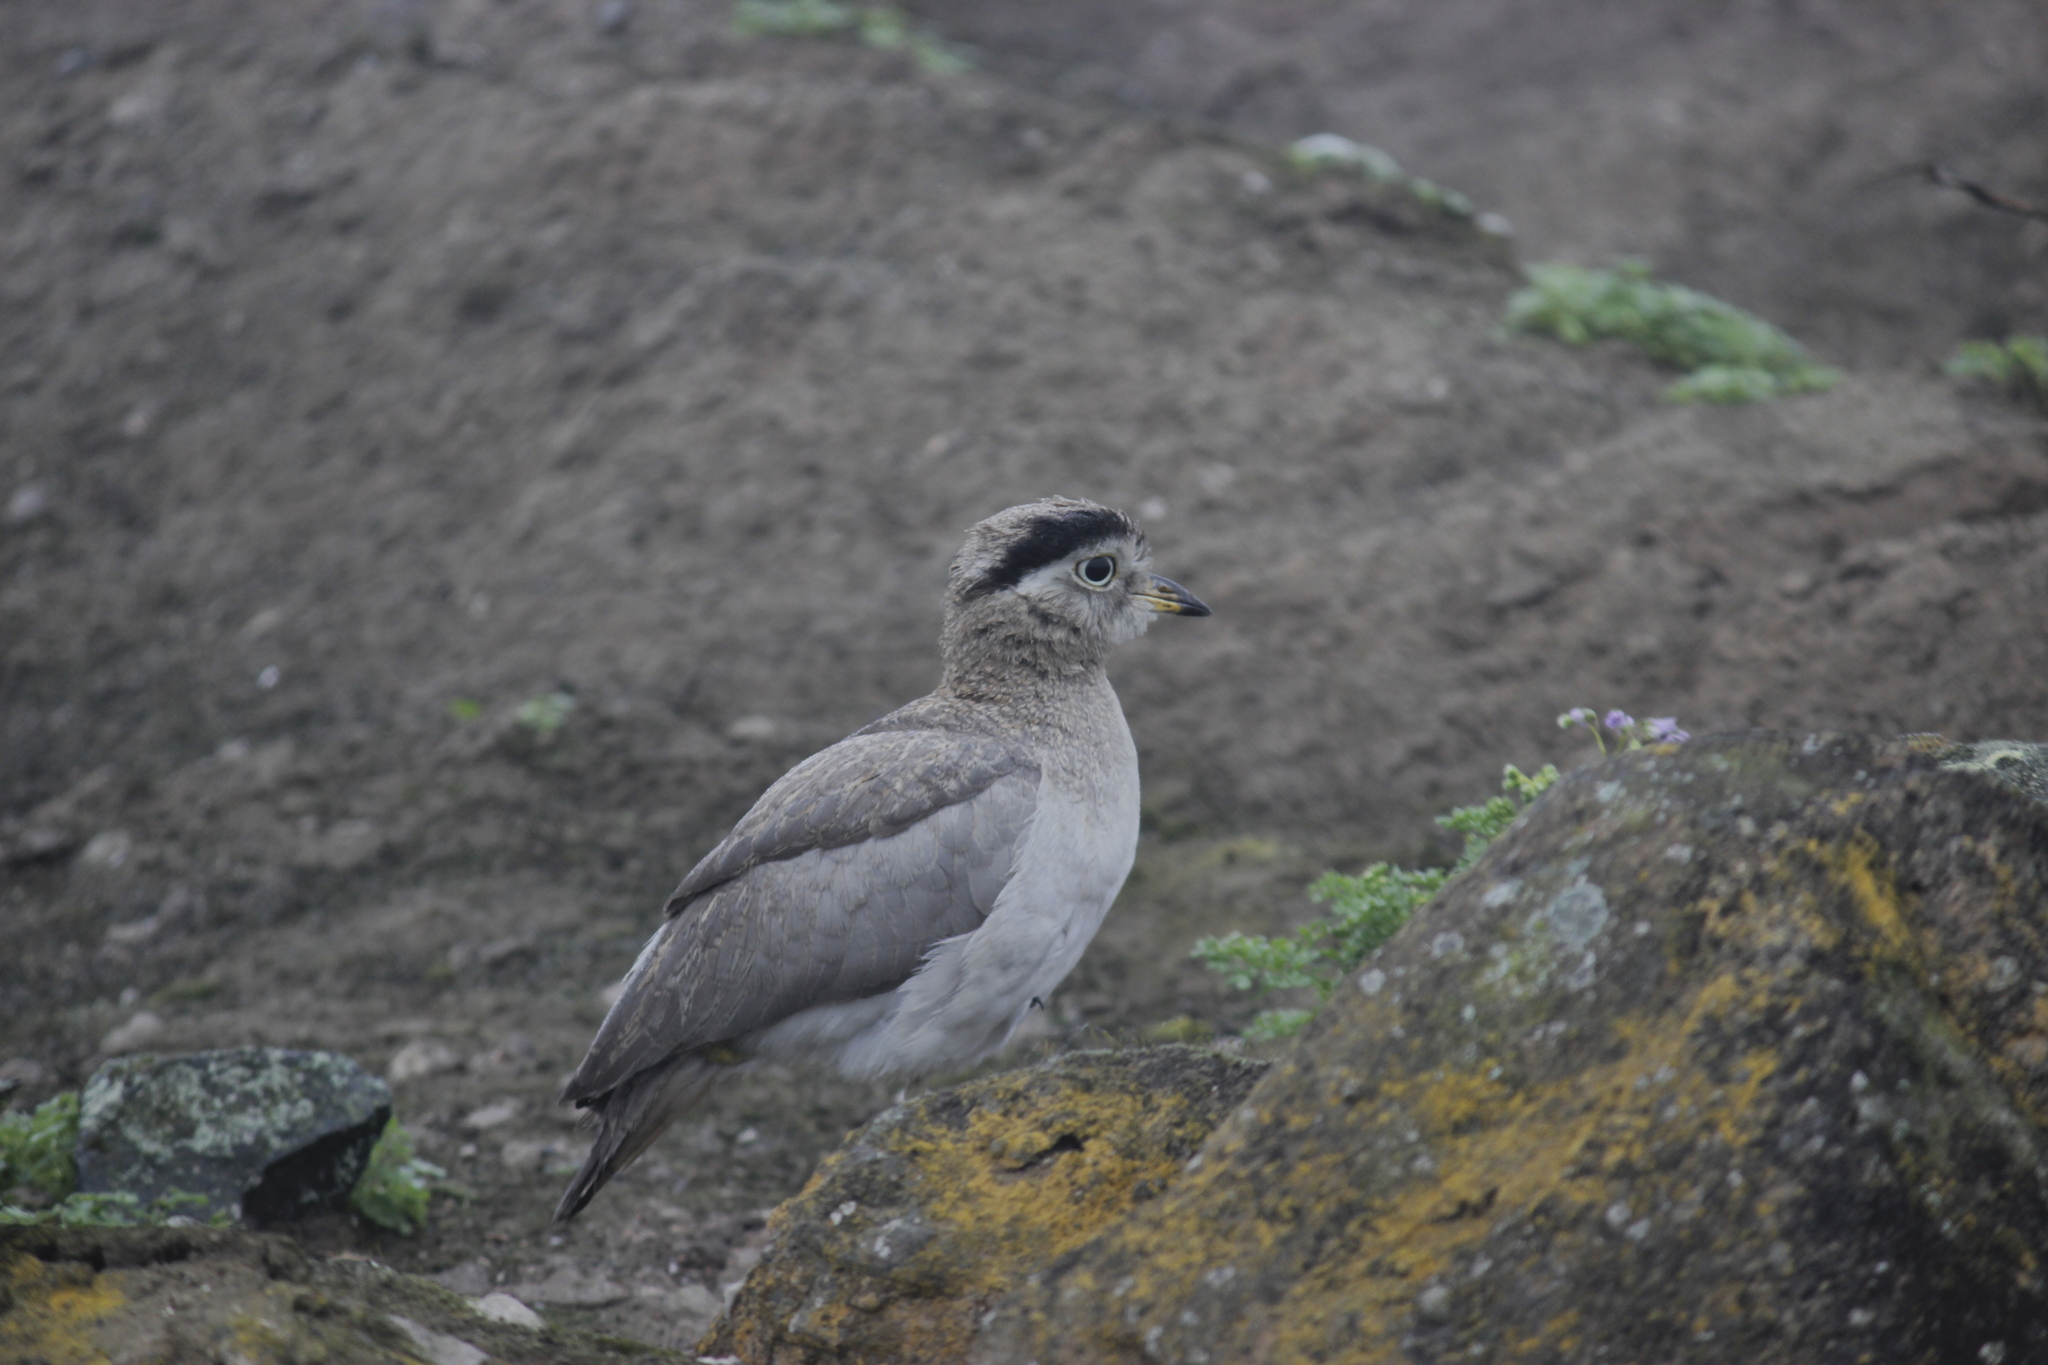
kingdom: Animalia
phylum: Chordata
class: Aves
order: Charadriiformes
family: Burhinidae
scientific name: Burhinidae
